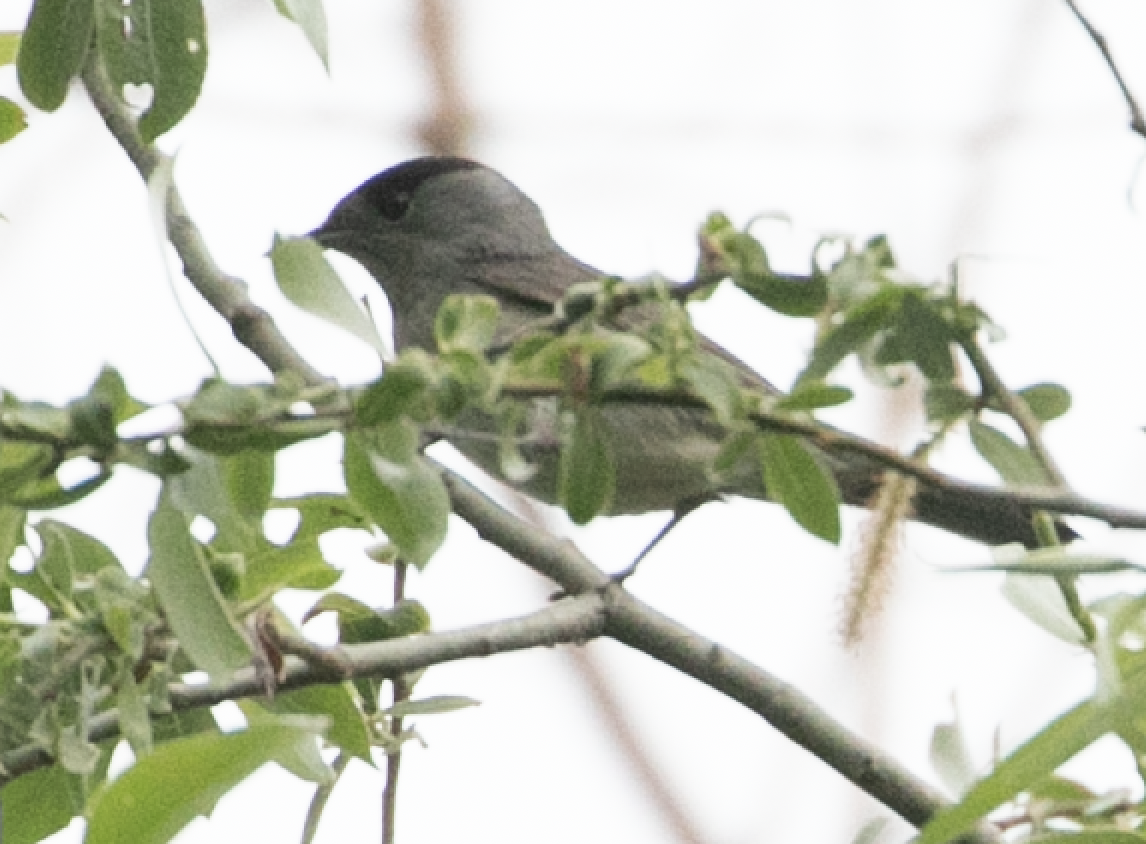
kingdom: Animalia
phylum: Chordata
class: Aves
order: Passeriformes
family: Sylviidae
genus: Sylvia
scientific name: Sylvia atricapilla
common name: Eurasian blackcap
